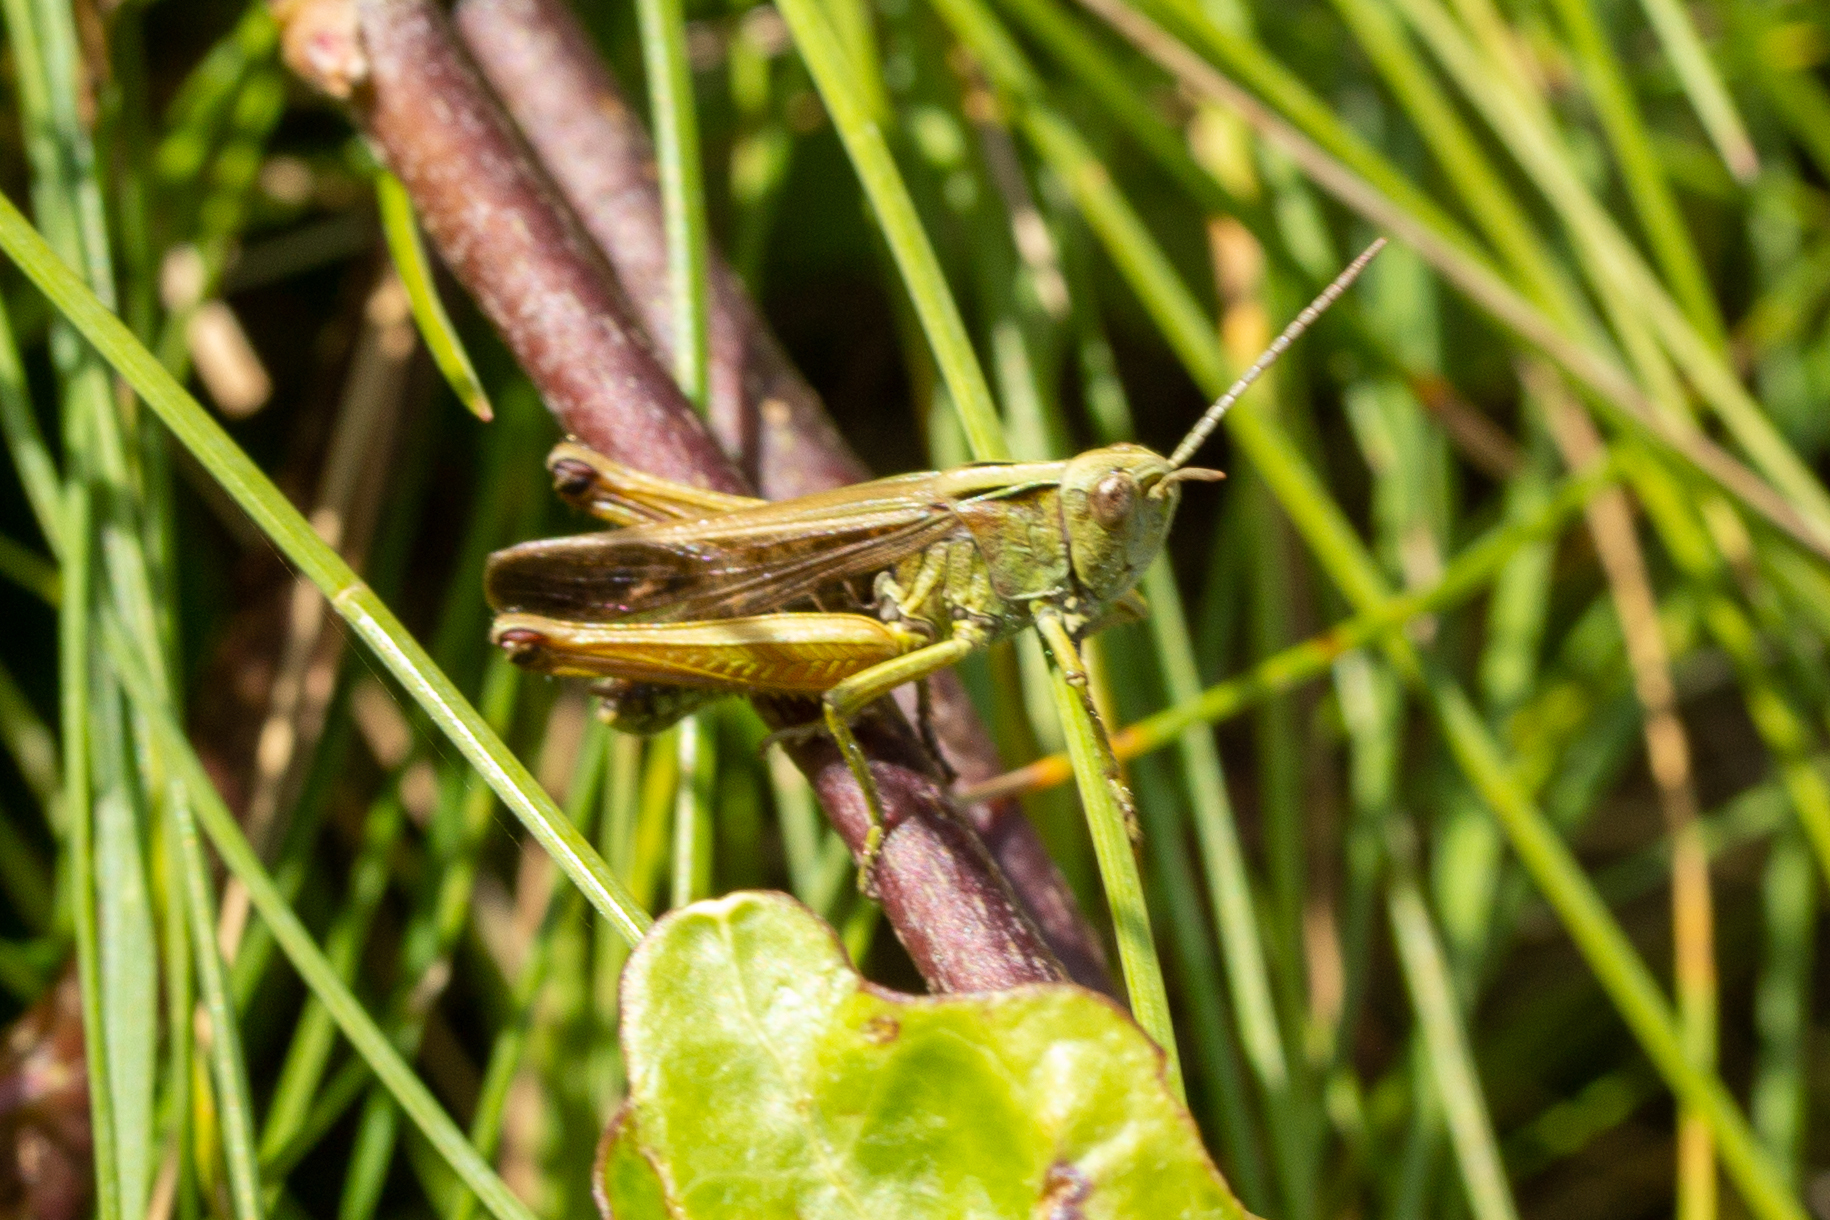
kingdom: Animalia
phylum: Arthropoda
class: Insecta
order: Orthoptera
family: Acrididae
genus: Omocestus
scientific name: Omocestus viridulus
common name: Common green grasshopper
